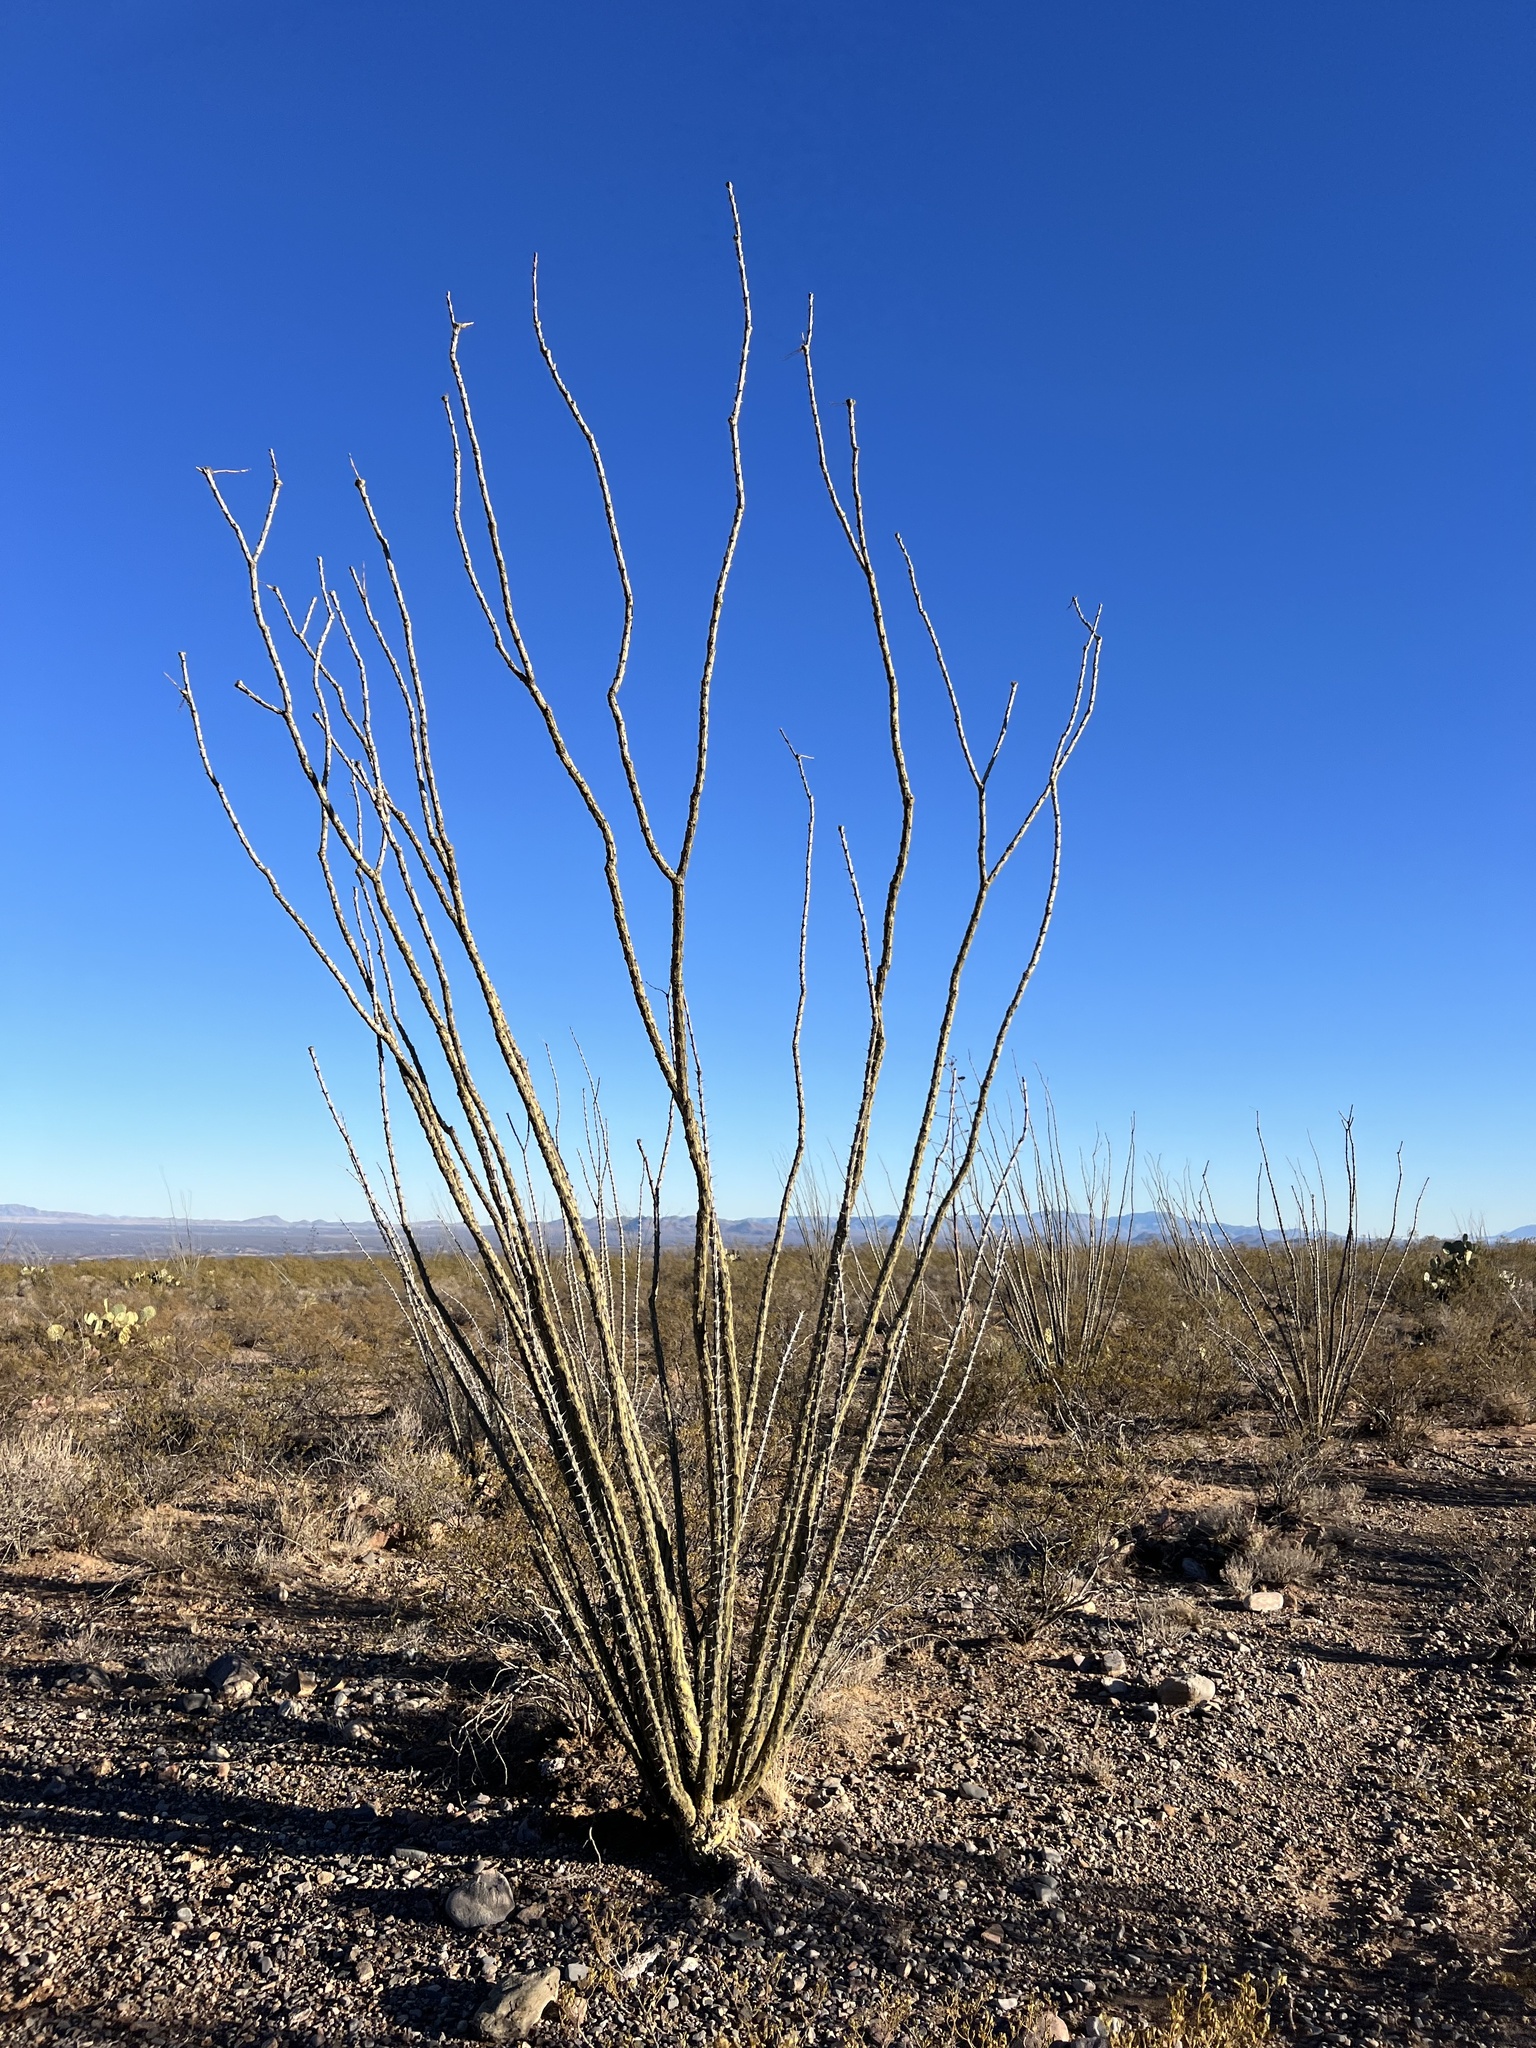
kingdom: Plantae
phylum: Tracheophyta
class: Magnoliopsida
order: Ericales
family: Fouquieriaceae
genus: Fouquieria
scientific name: Fouquieria splendens
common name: Vine-cactus
